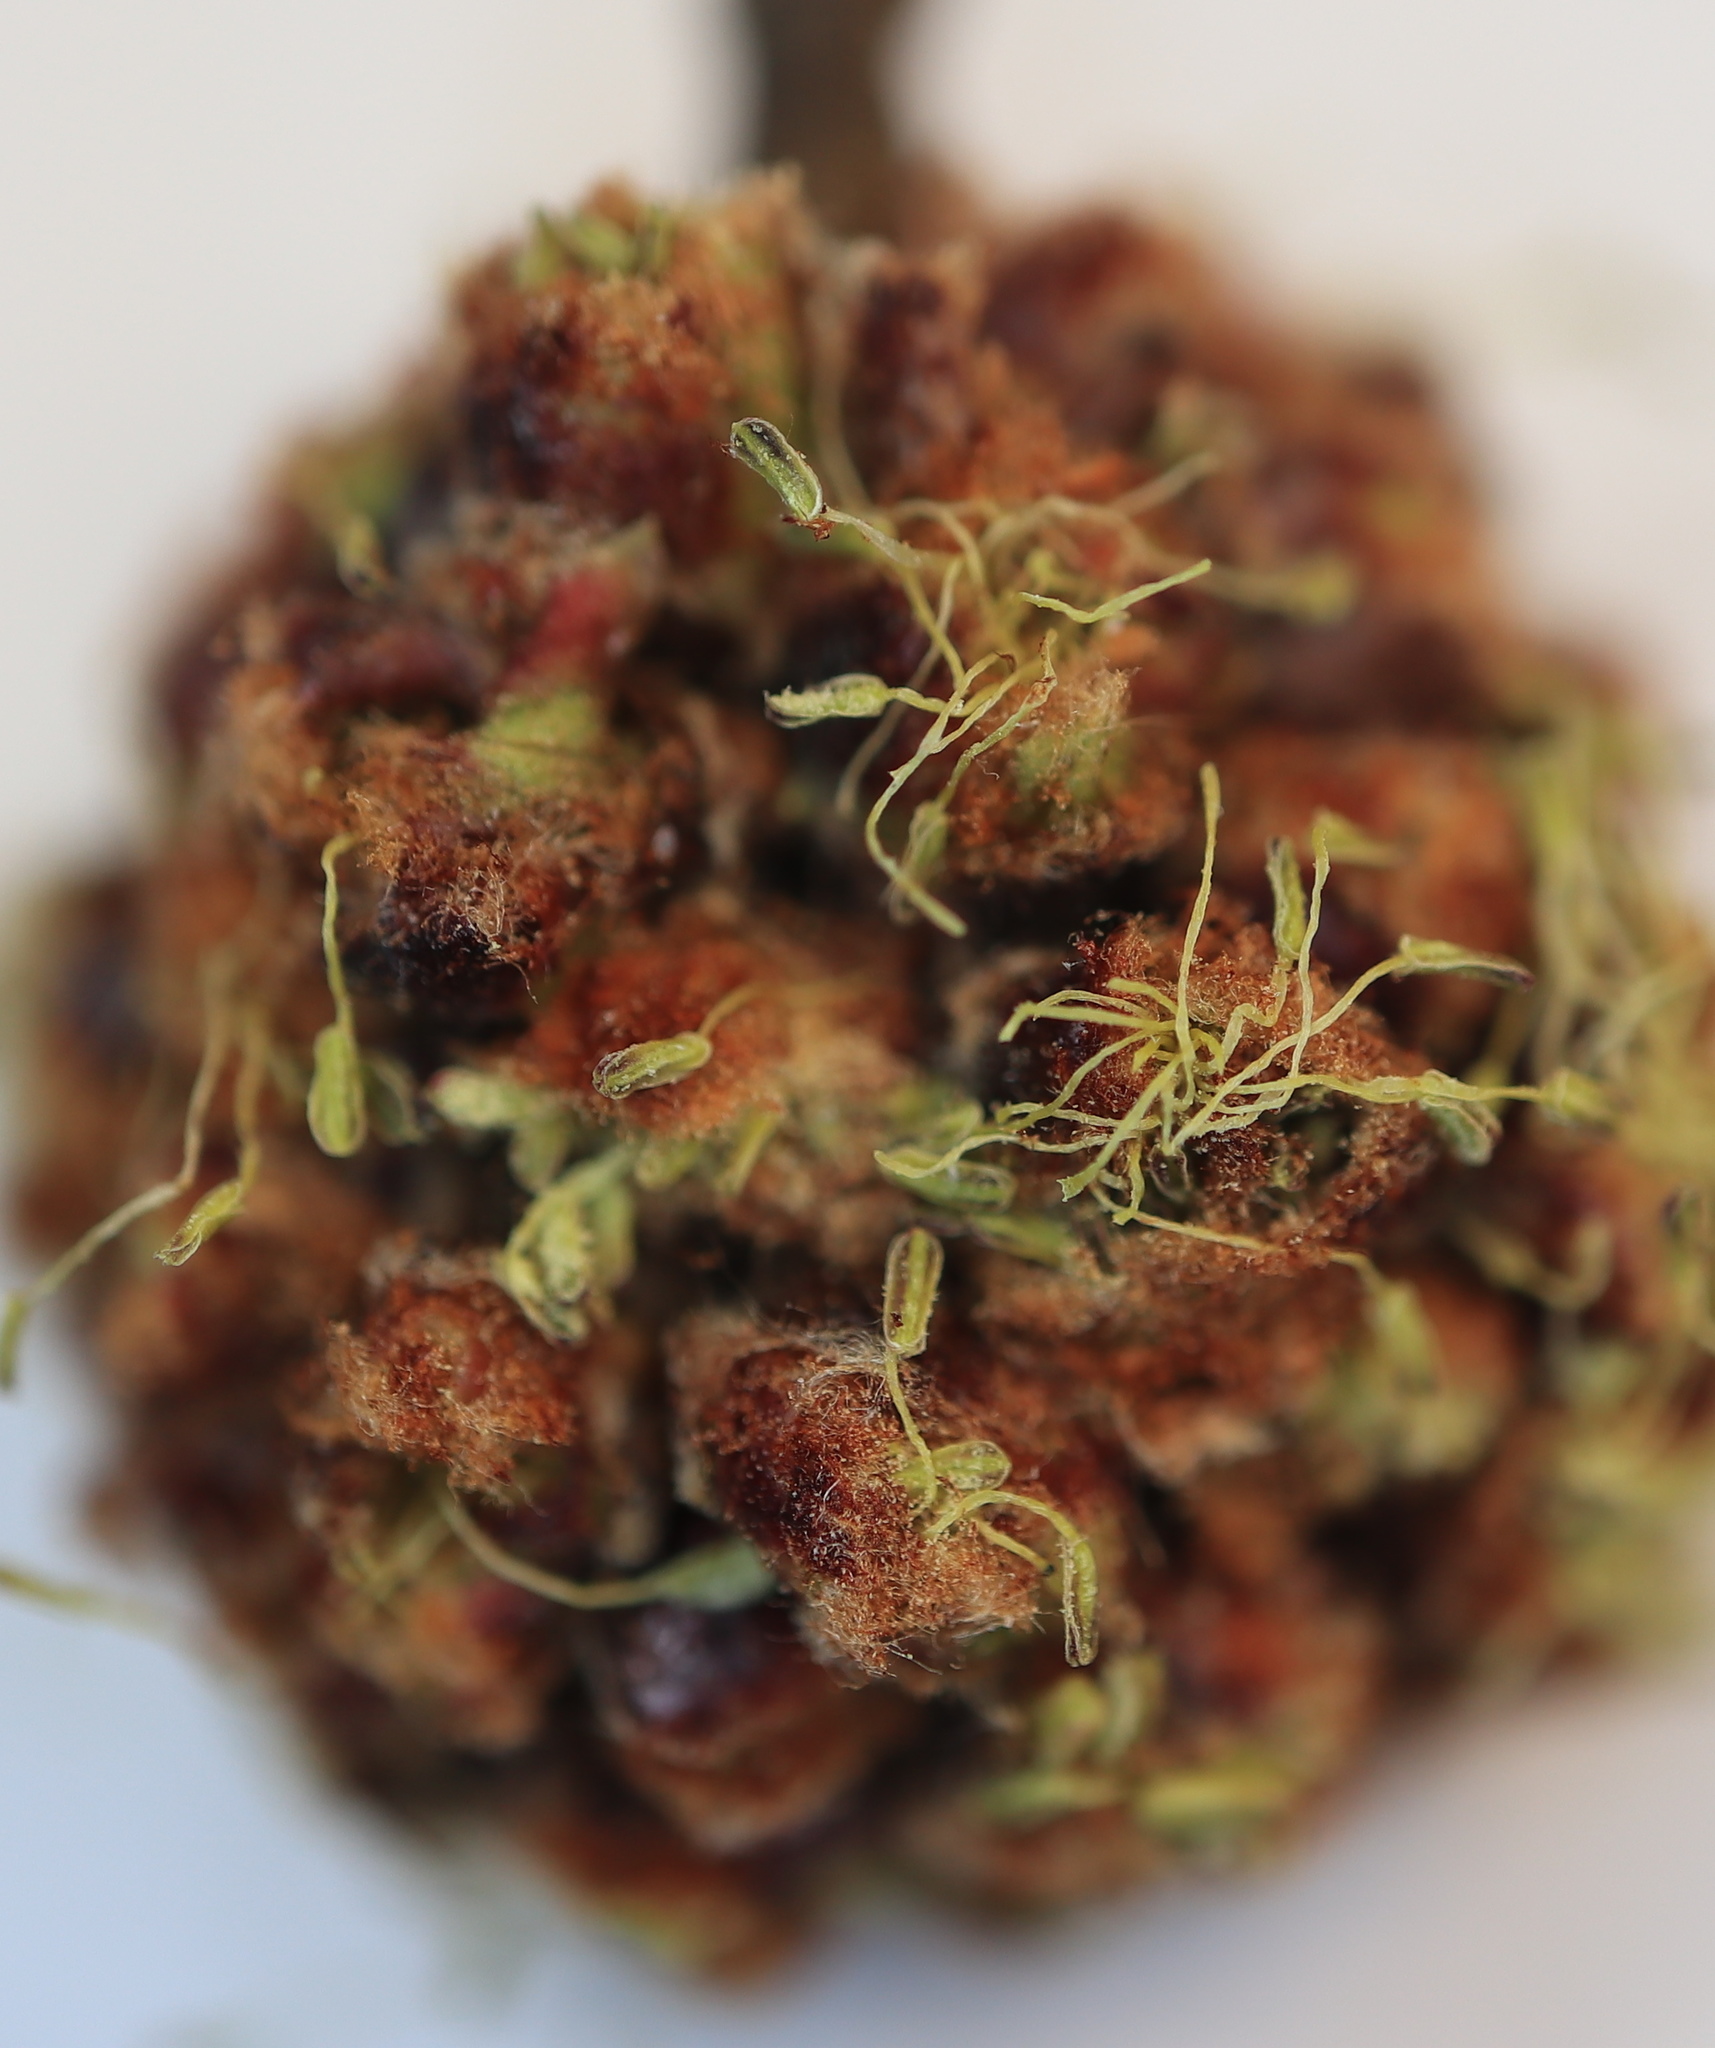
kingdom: Plantae
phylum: Tracheophyta
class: Magnoliopsida
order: Sapindales
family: Sapindaceae
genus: Acer
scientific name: Acer saccharinum
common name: Silver maple
